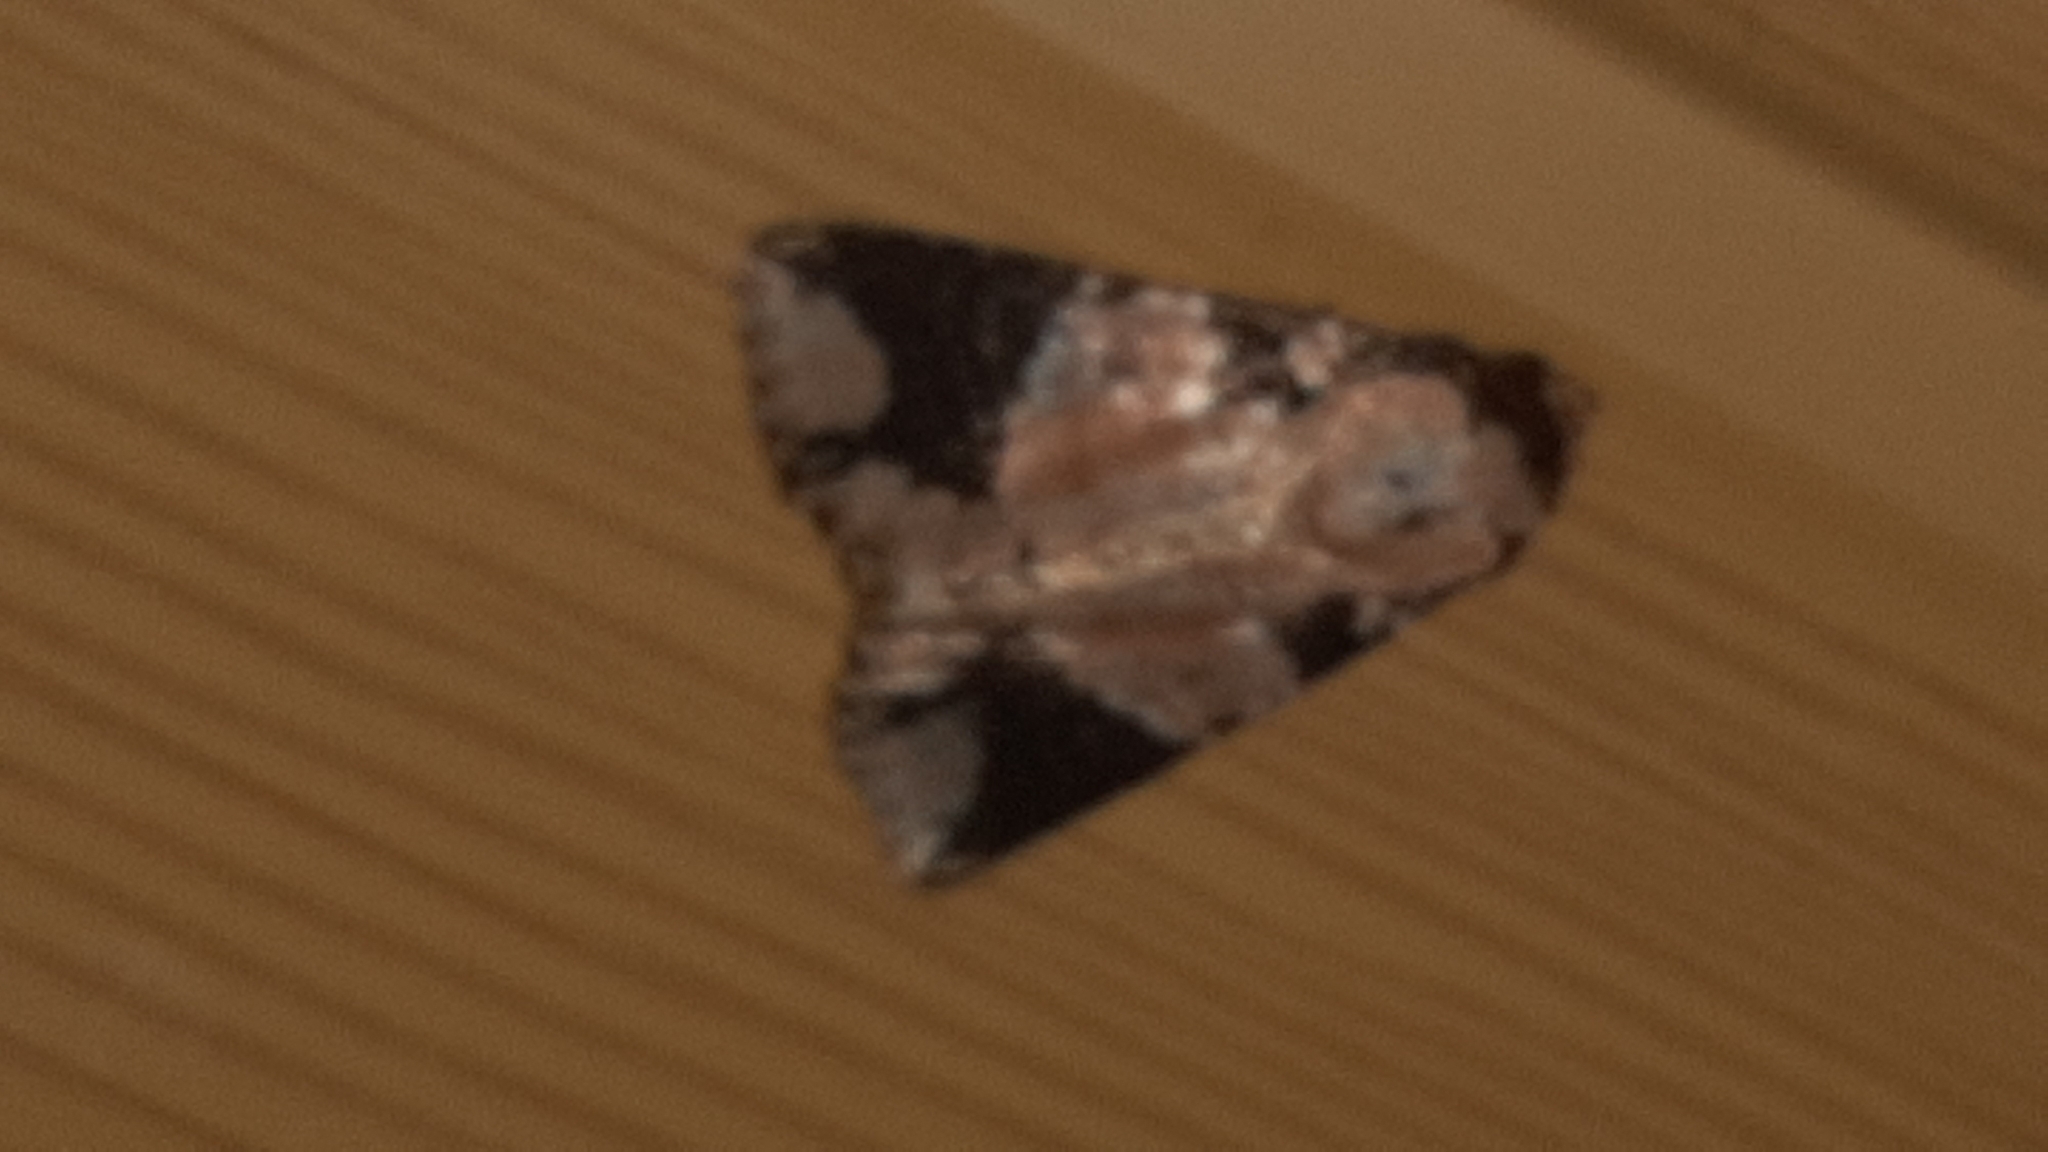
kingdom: Animalia
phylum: Arthropoda
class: Insecta
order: Lepidoptera
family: Noctuidae
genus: Condica
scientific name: Condica cupentia
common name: Splotched groundling
